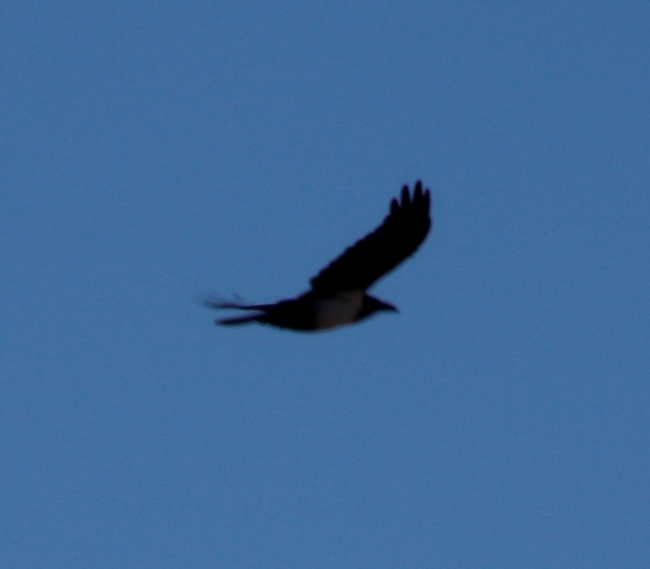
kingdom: Animalia
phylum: Chordata
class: Aves
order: Passeriformes
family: Corvidae
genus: Corvus
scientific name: Corvus albus
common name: Pied crow
